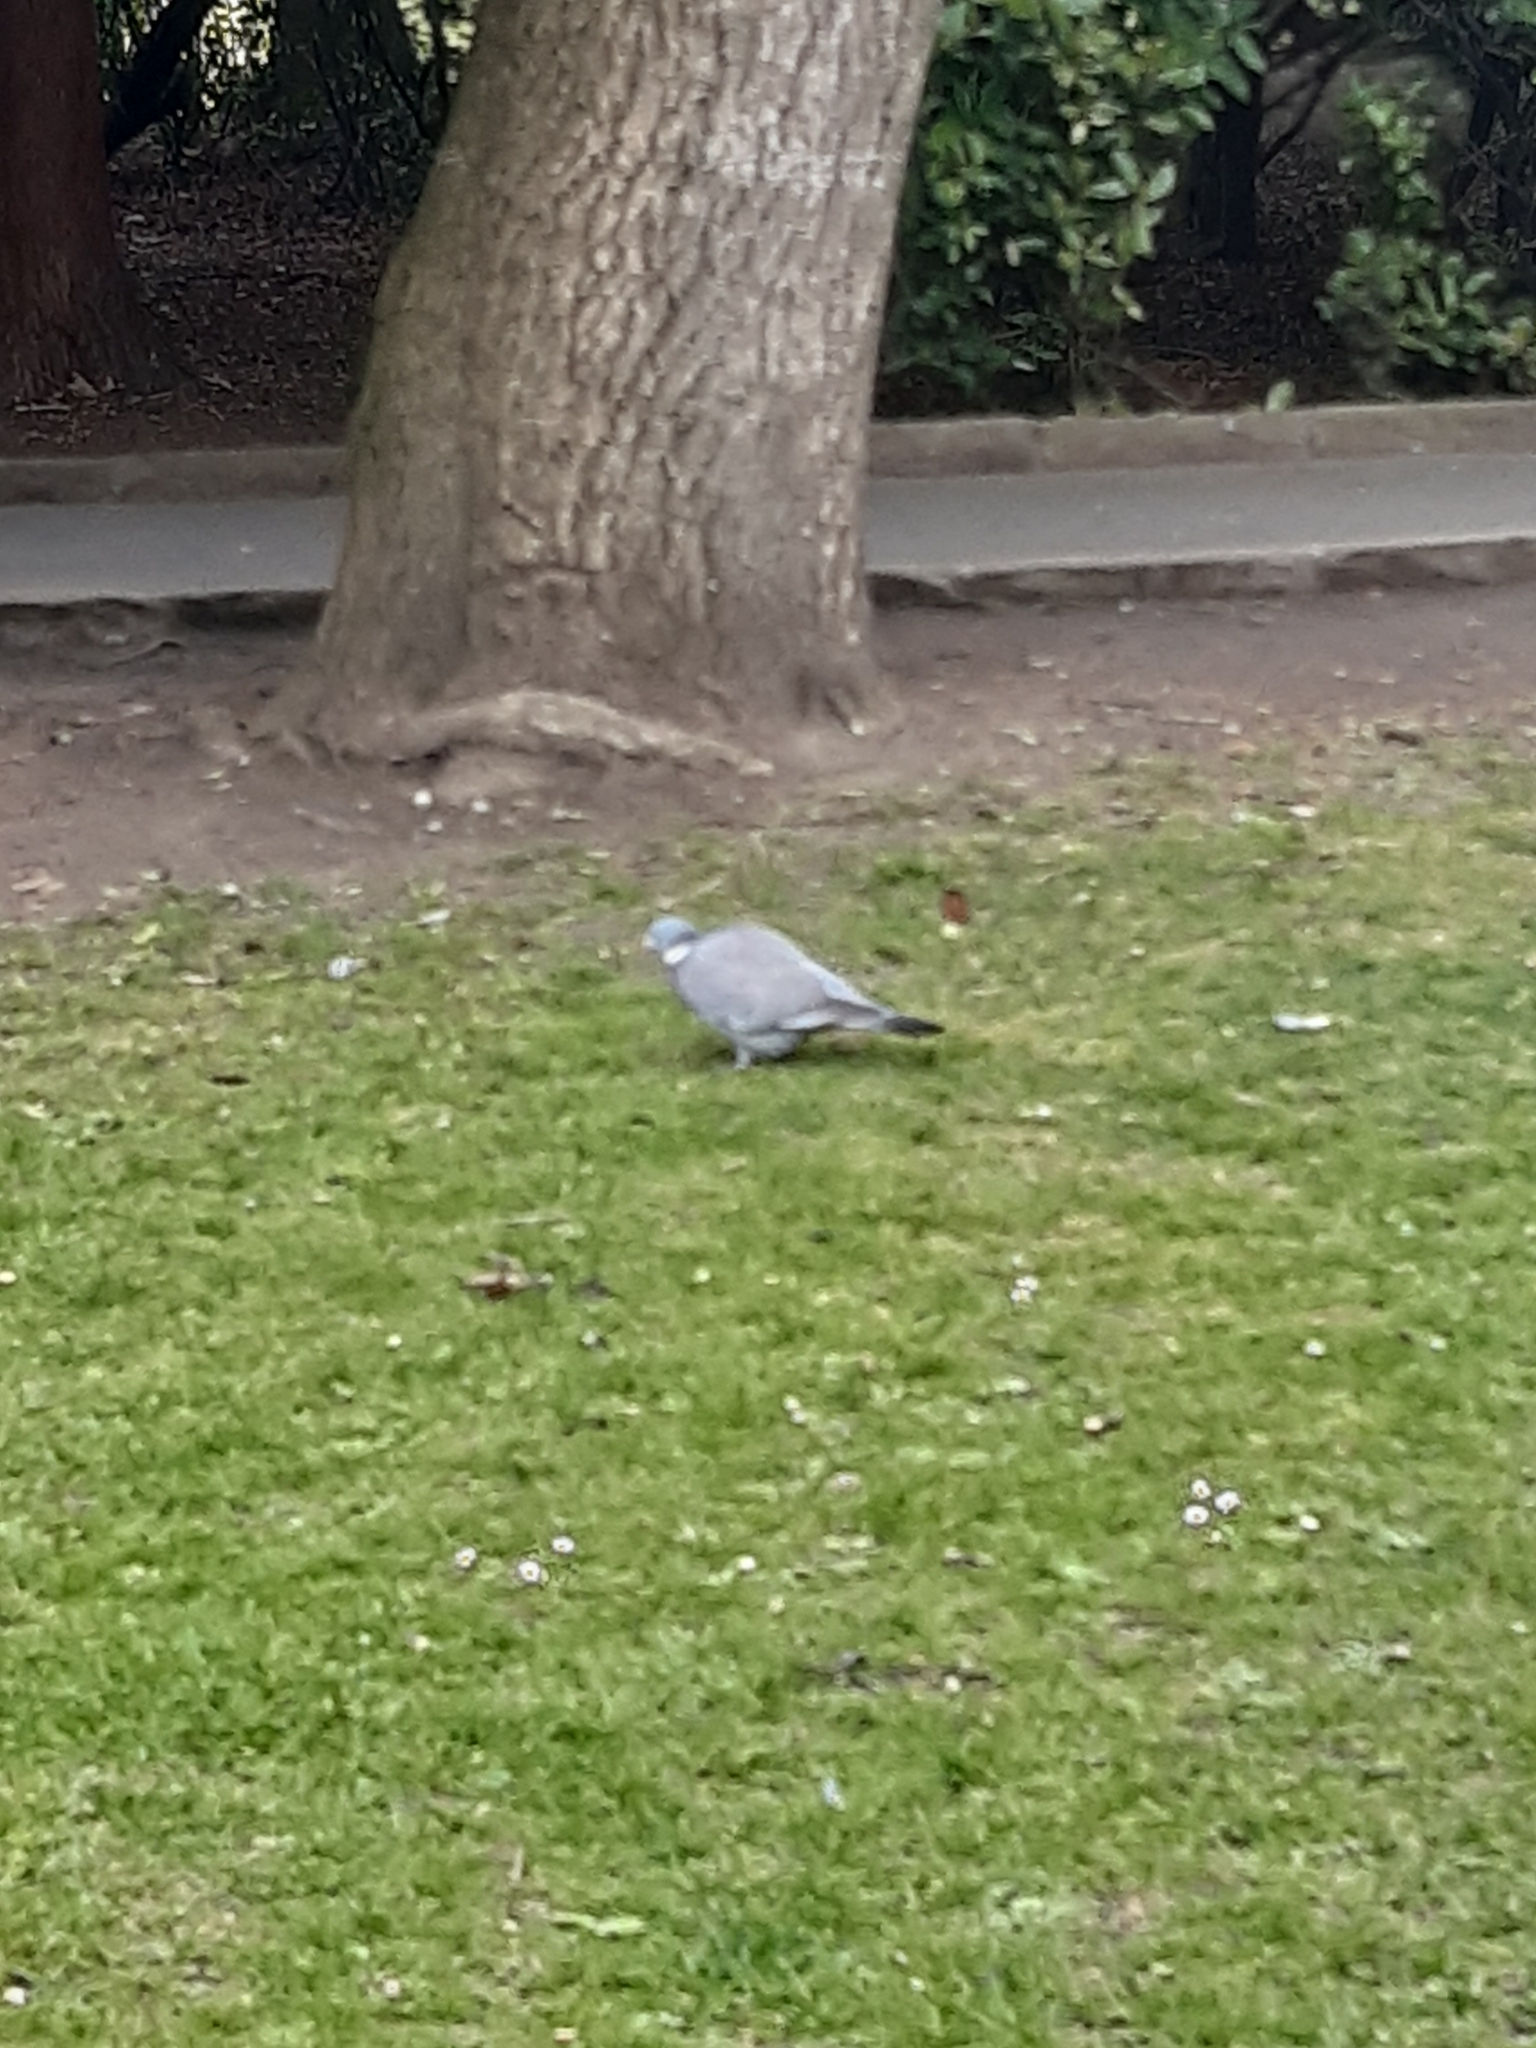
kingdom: Animalia
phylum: Chordata
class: Aves
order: Columbiformes
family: Columbidae
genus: Columba
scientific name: Columba palumbus
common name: Common wood pigeon
